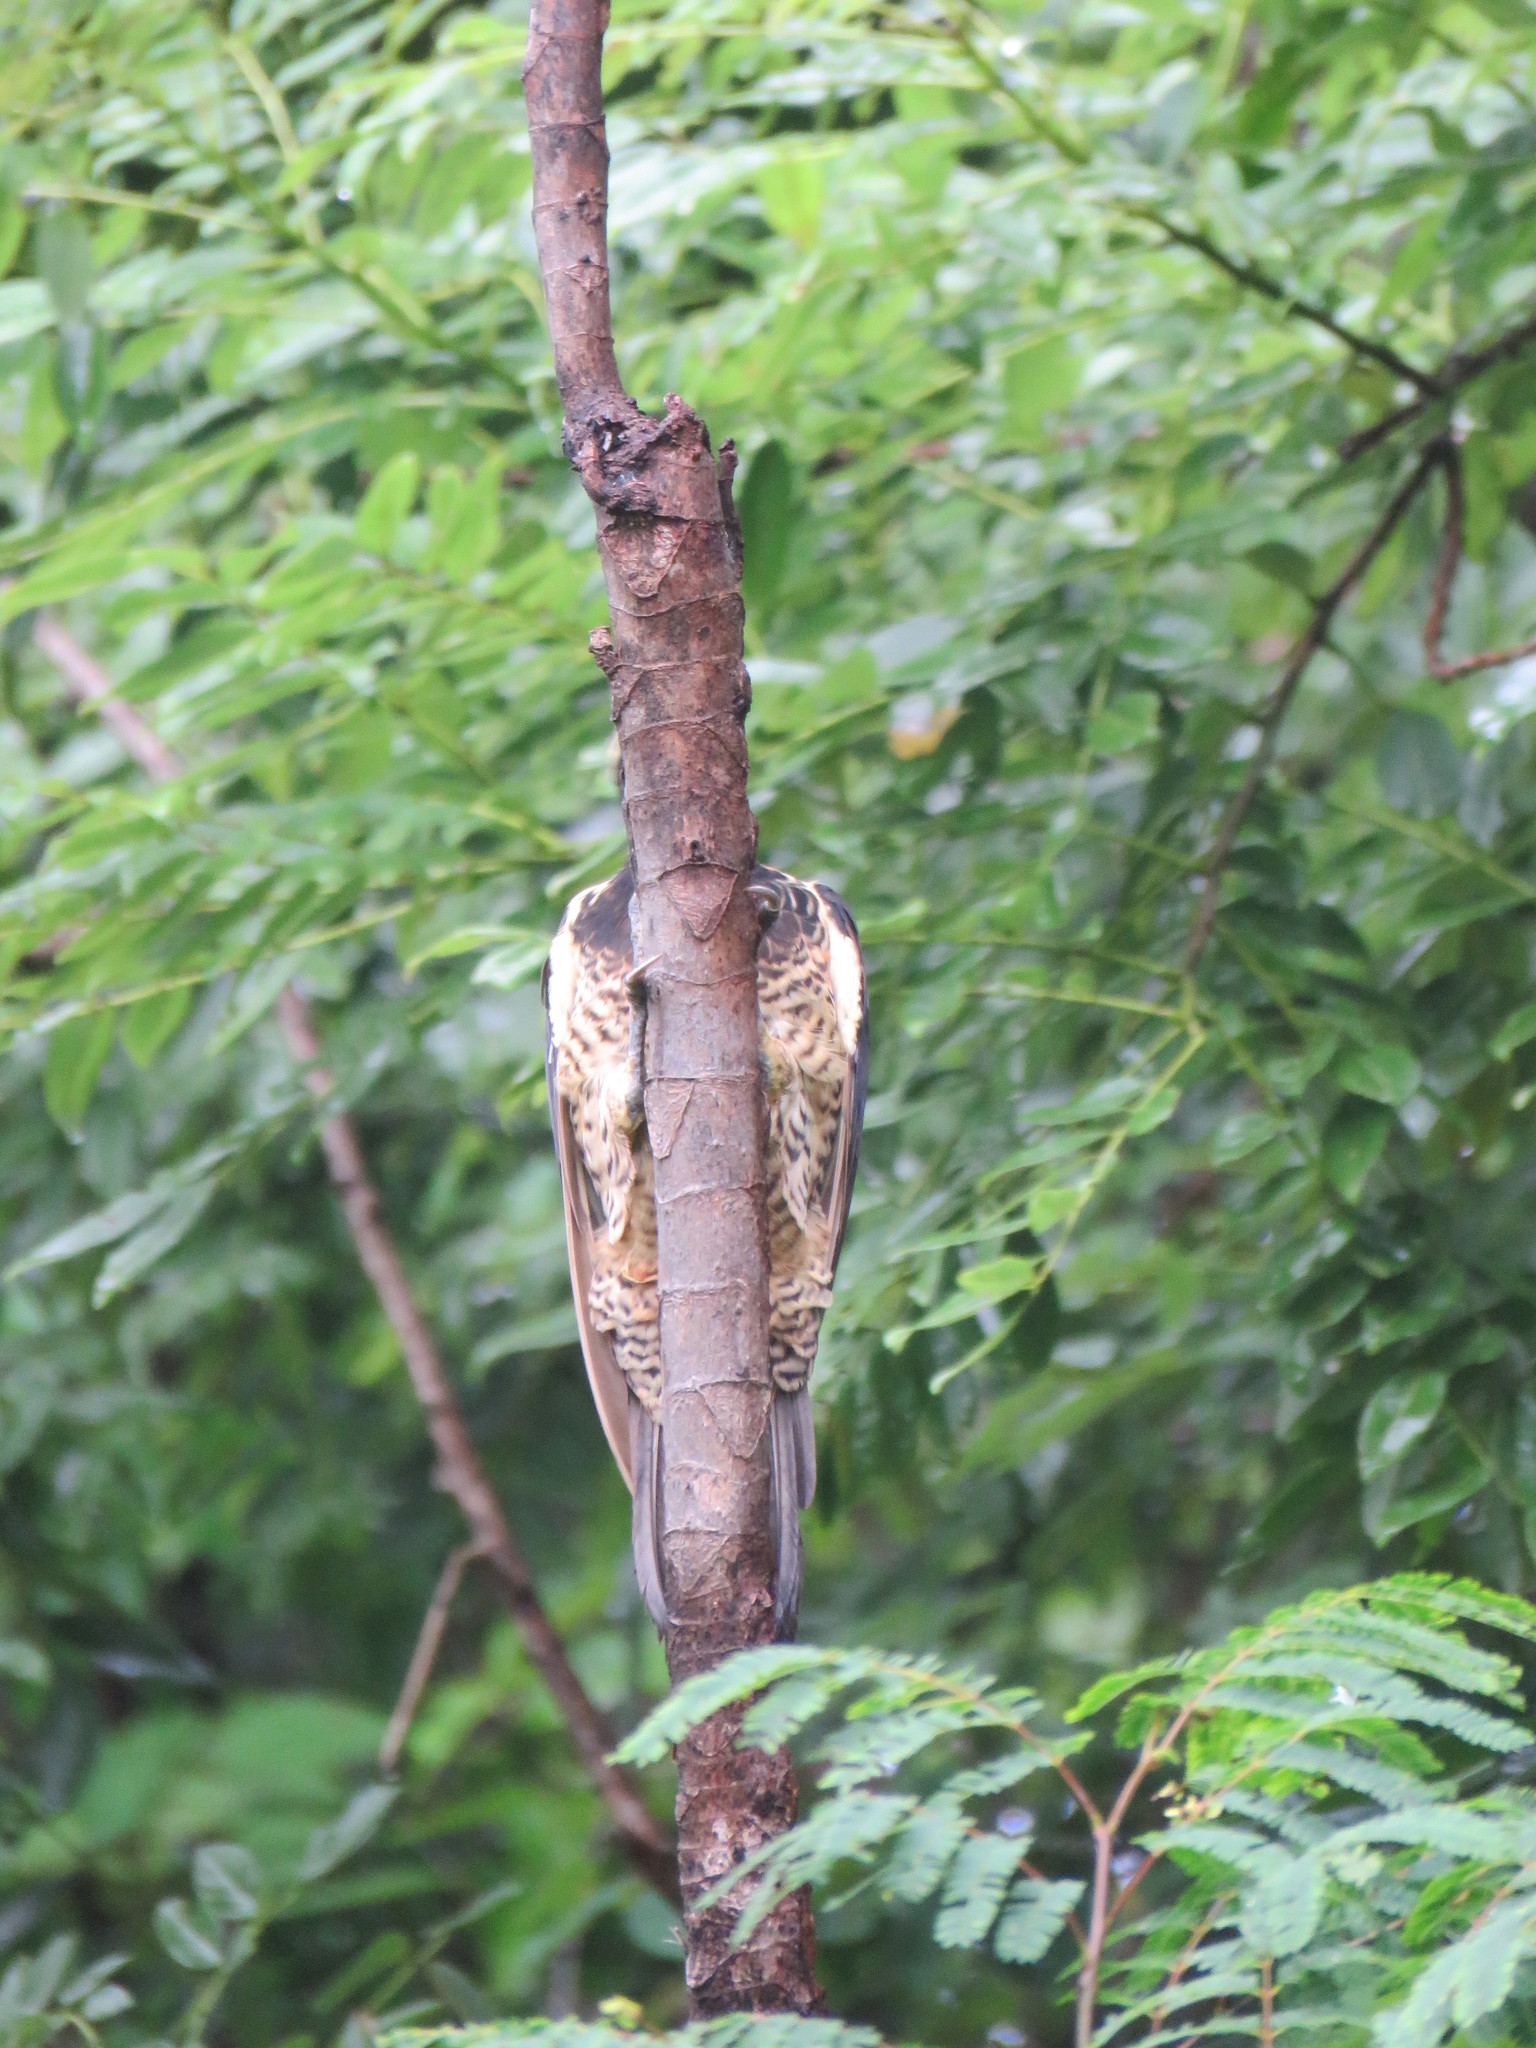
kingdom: Animalia
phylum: Chordata
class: Aves
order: Piciformes
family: Picidae
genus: Dryocopus
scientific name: Dryocopus lineatus
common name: Lineated woodpecker
